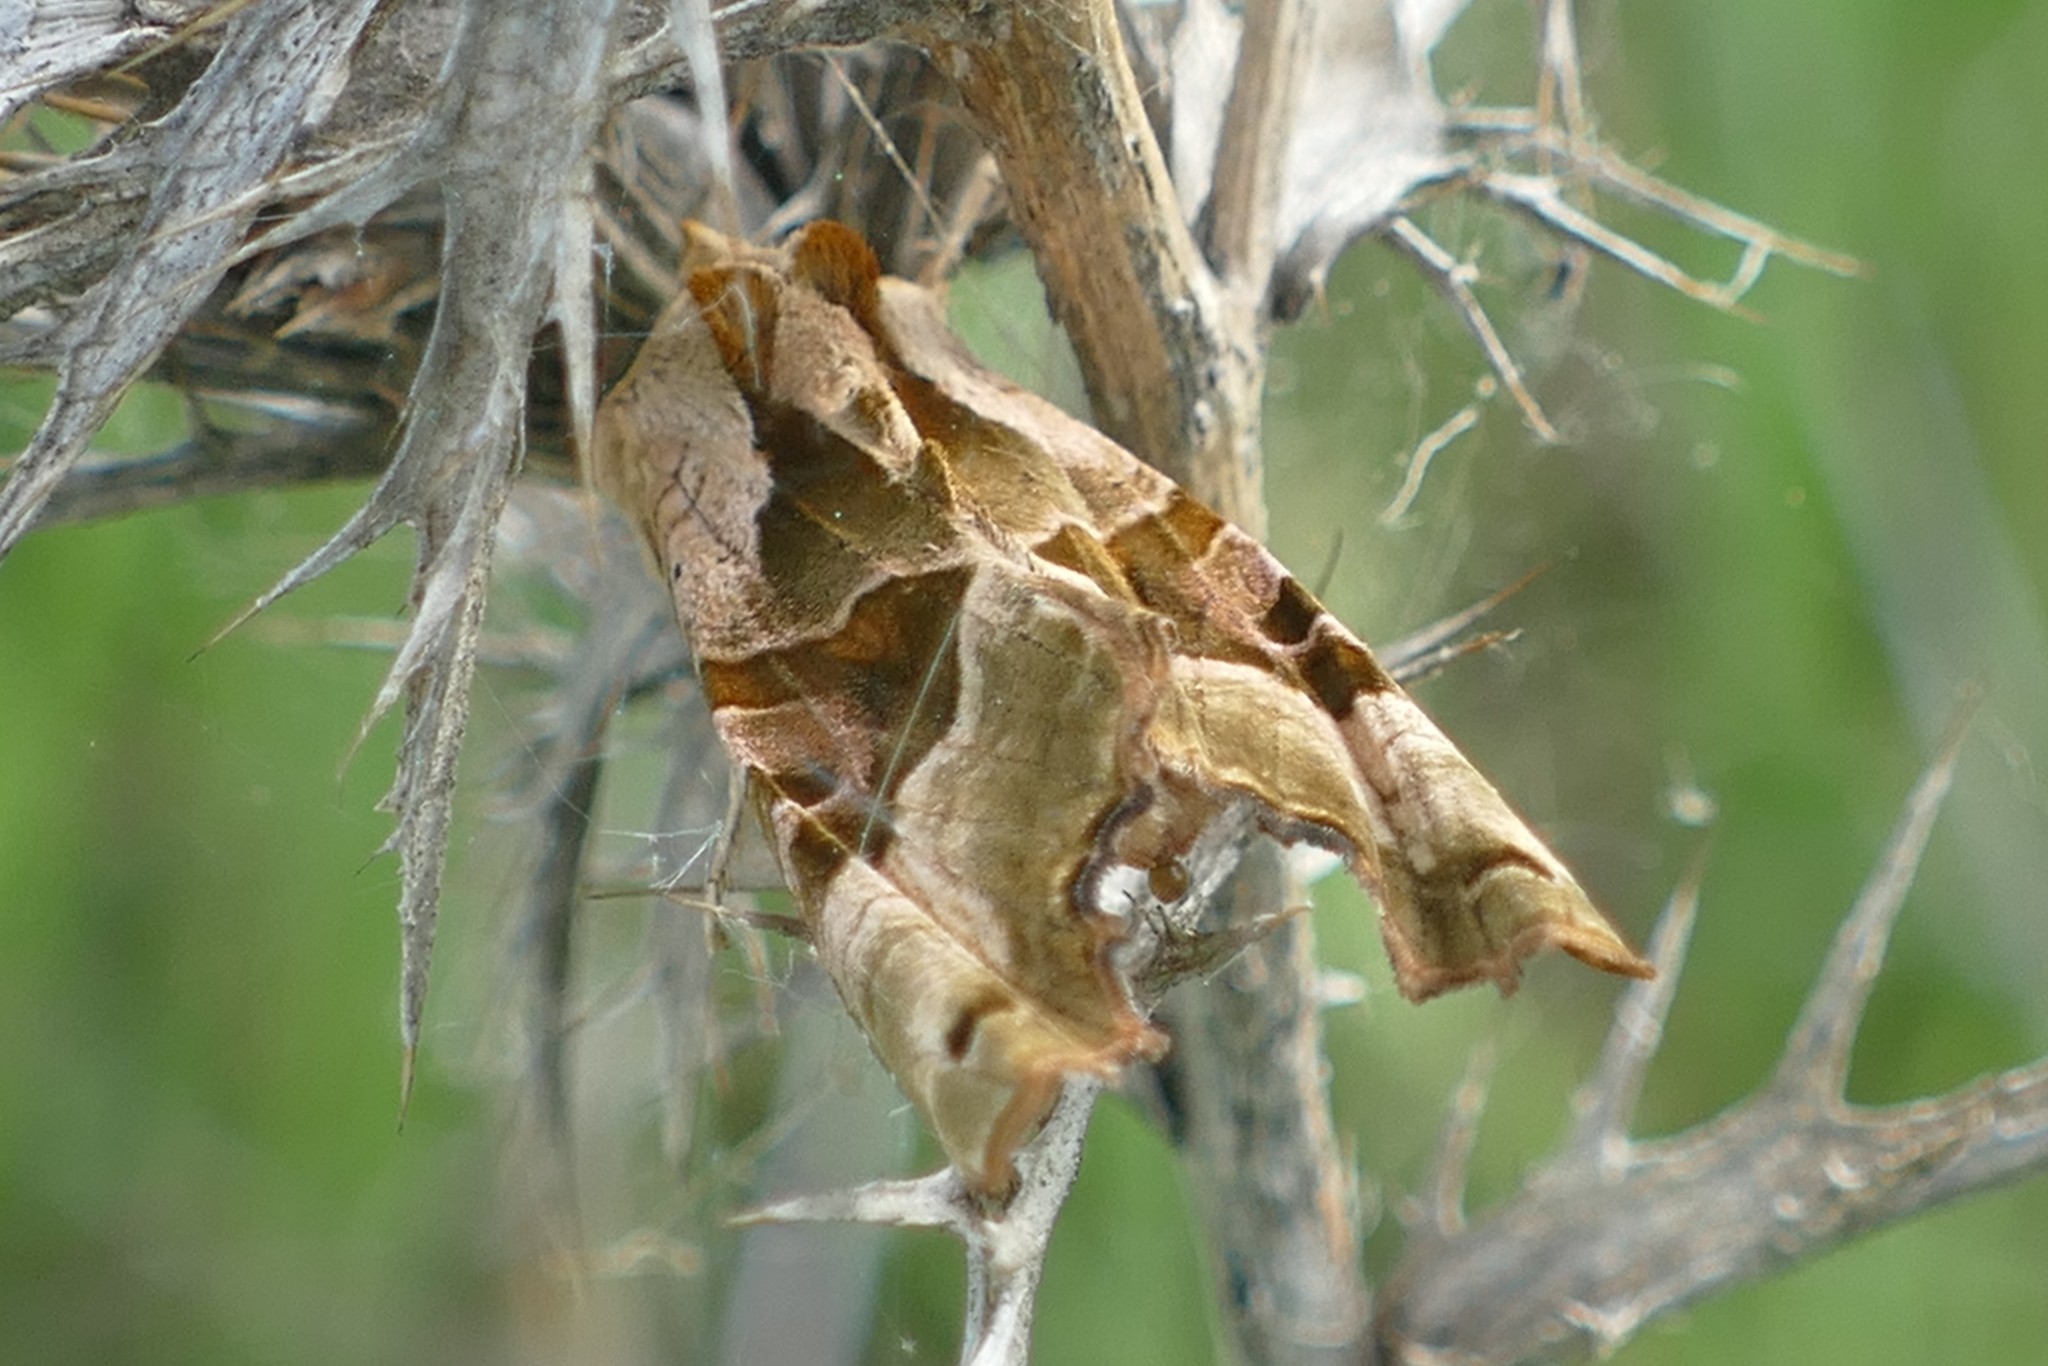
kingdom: Animalia
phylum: Arthropoda
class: Insecta
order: Lepidoptera
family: Noctuidae
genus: Phlogophora
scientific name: Phlogophora meticulosa
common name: Angle shades
